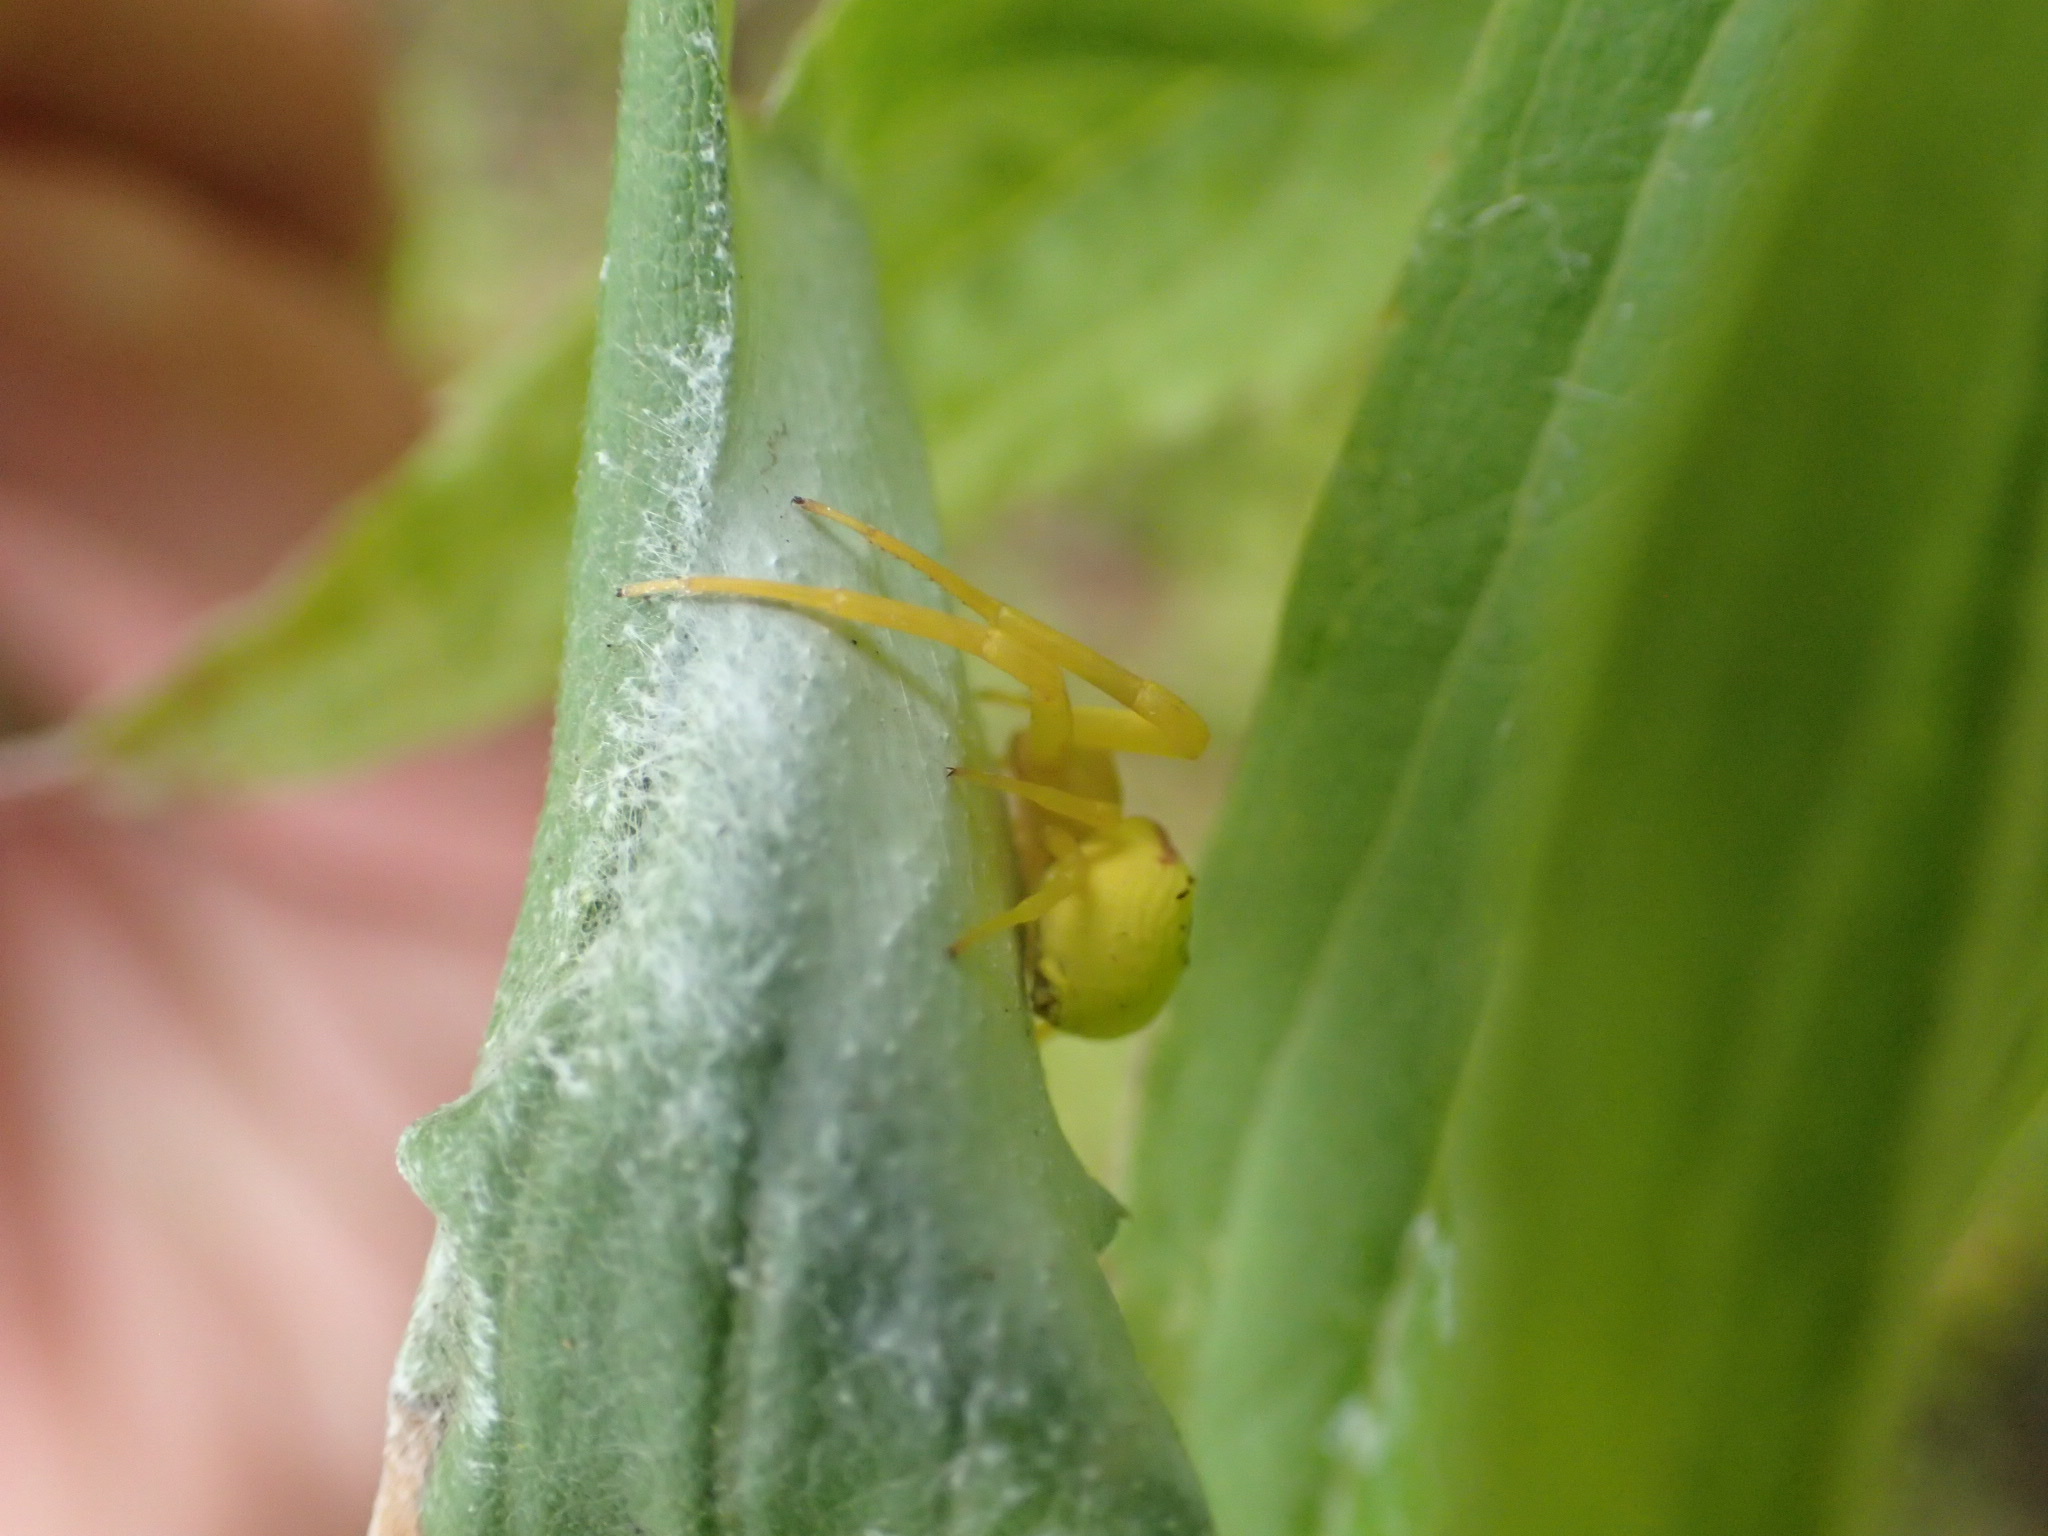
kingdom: Animalia
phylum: Arthropoda
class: Arachnida
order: Araneae
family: Thomisidae
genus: Misumena
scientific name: Misumena vatia
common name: Goldenrod crab spider
